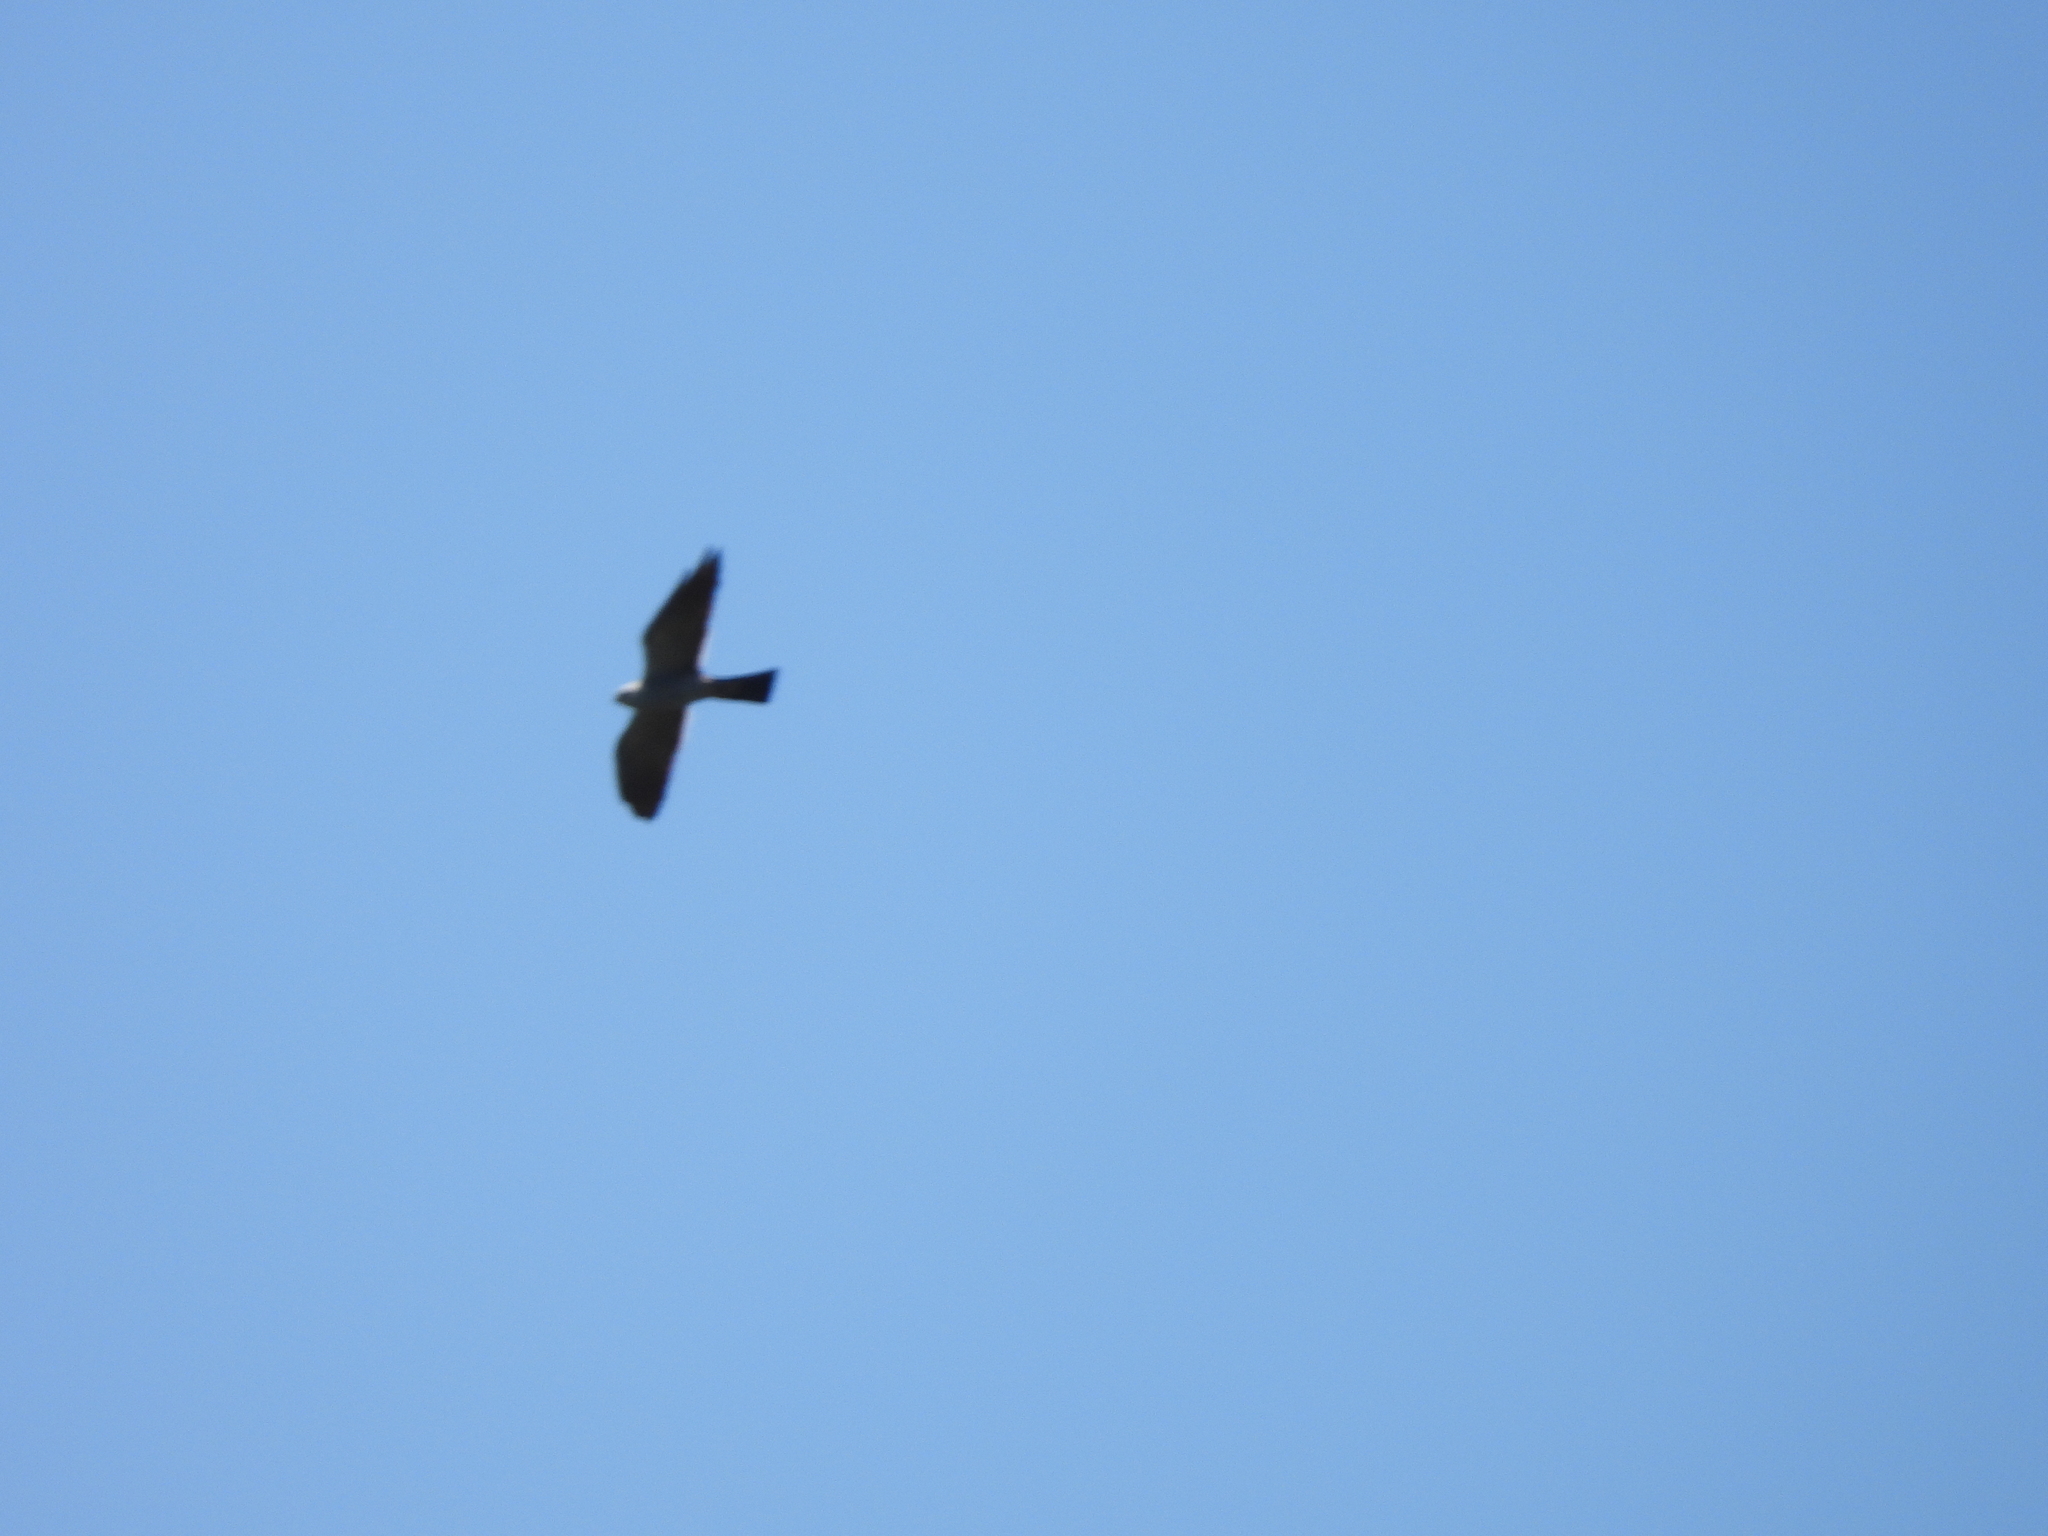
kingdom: Animalia
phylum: Chordata
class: Aves
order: Accipitriformes
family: Accipitridae
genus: Ictinia
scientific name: Ictinia mississippiensis
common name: Mississippi kite
